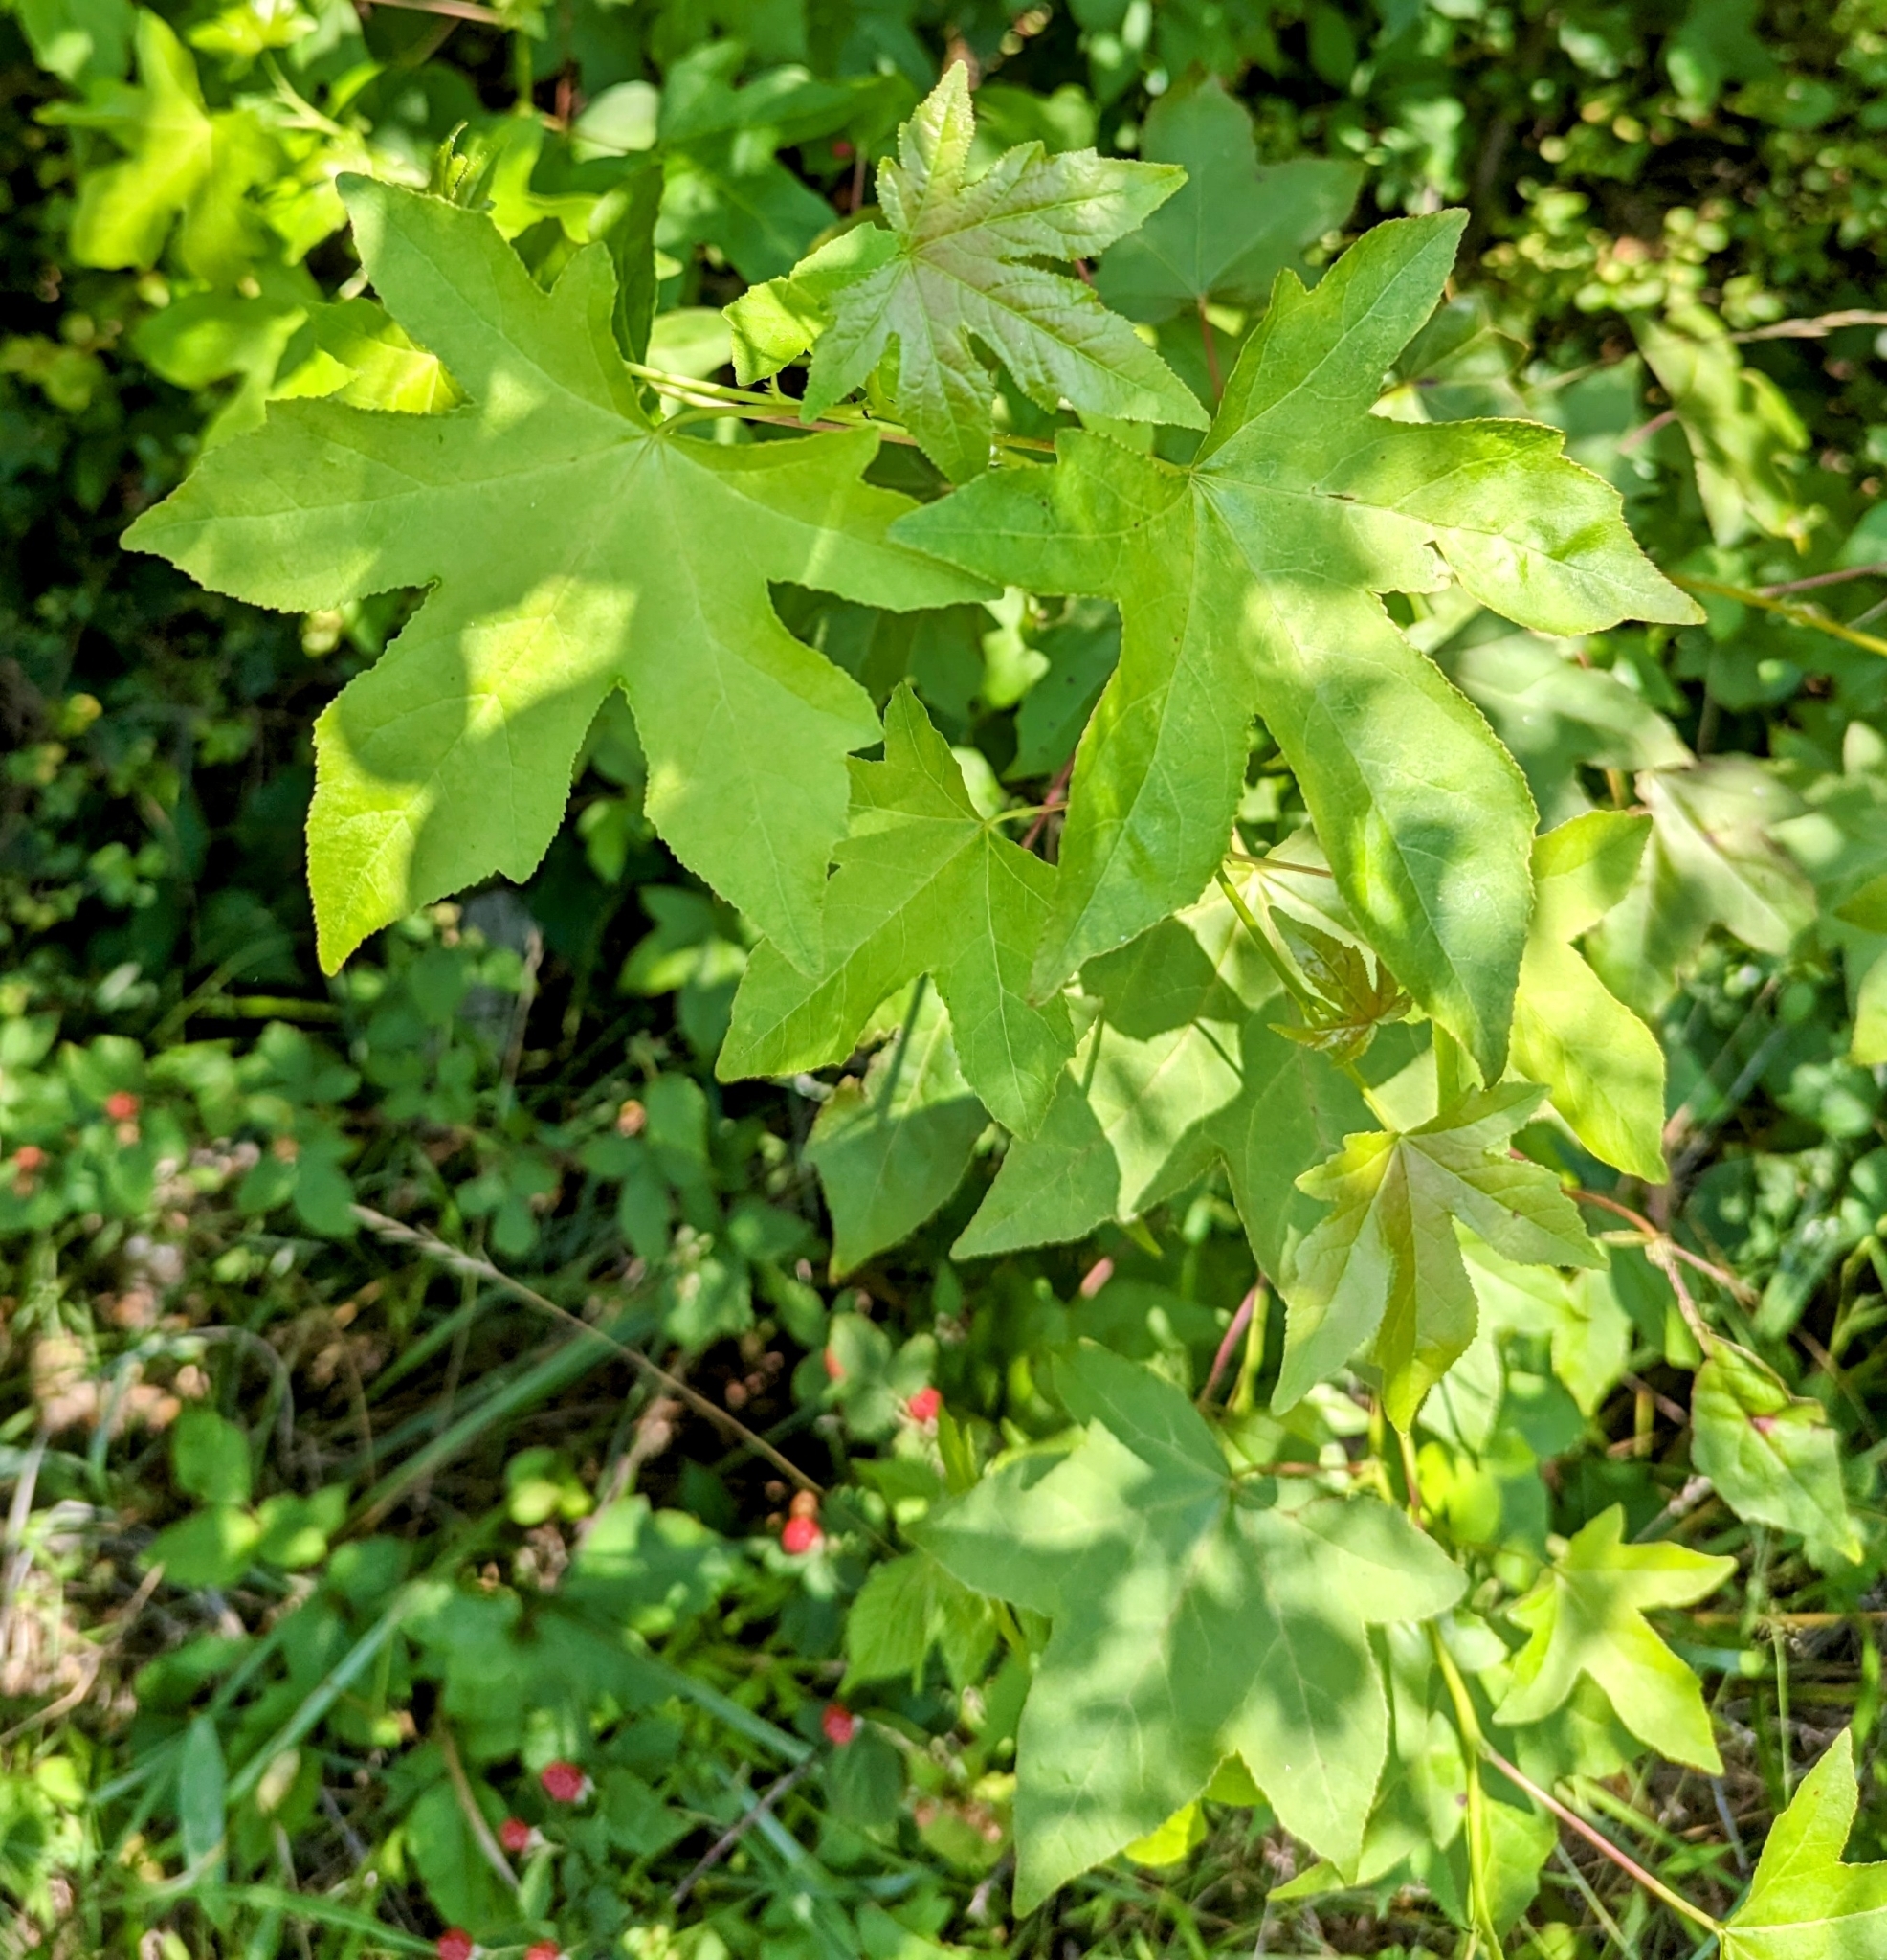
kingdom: Plantae
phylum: Tracheophyta
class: Magnoliopsida
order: Saxifragales
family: Altingiaceae
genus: Liquidambar
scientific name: Liquidambar styraciflua
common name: Sweet gum
